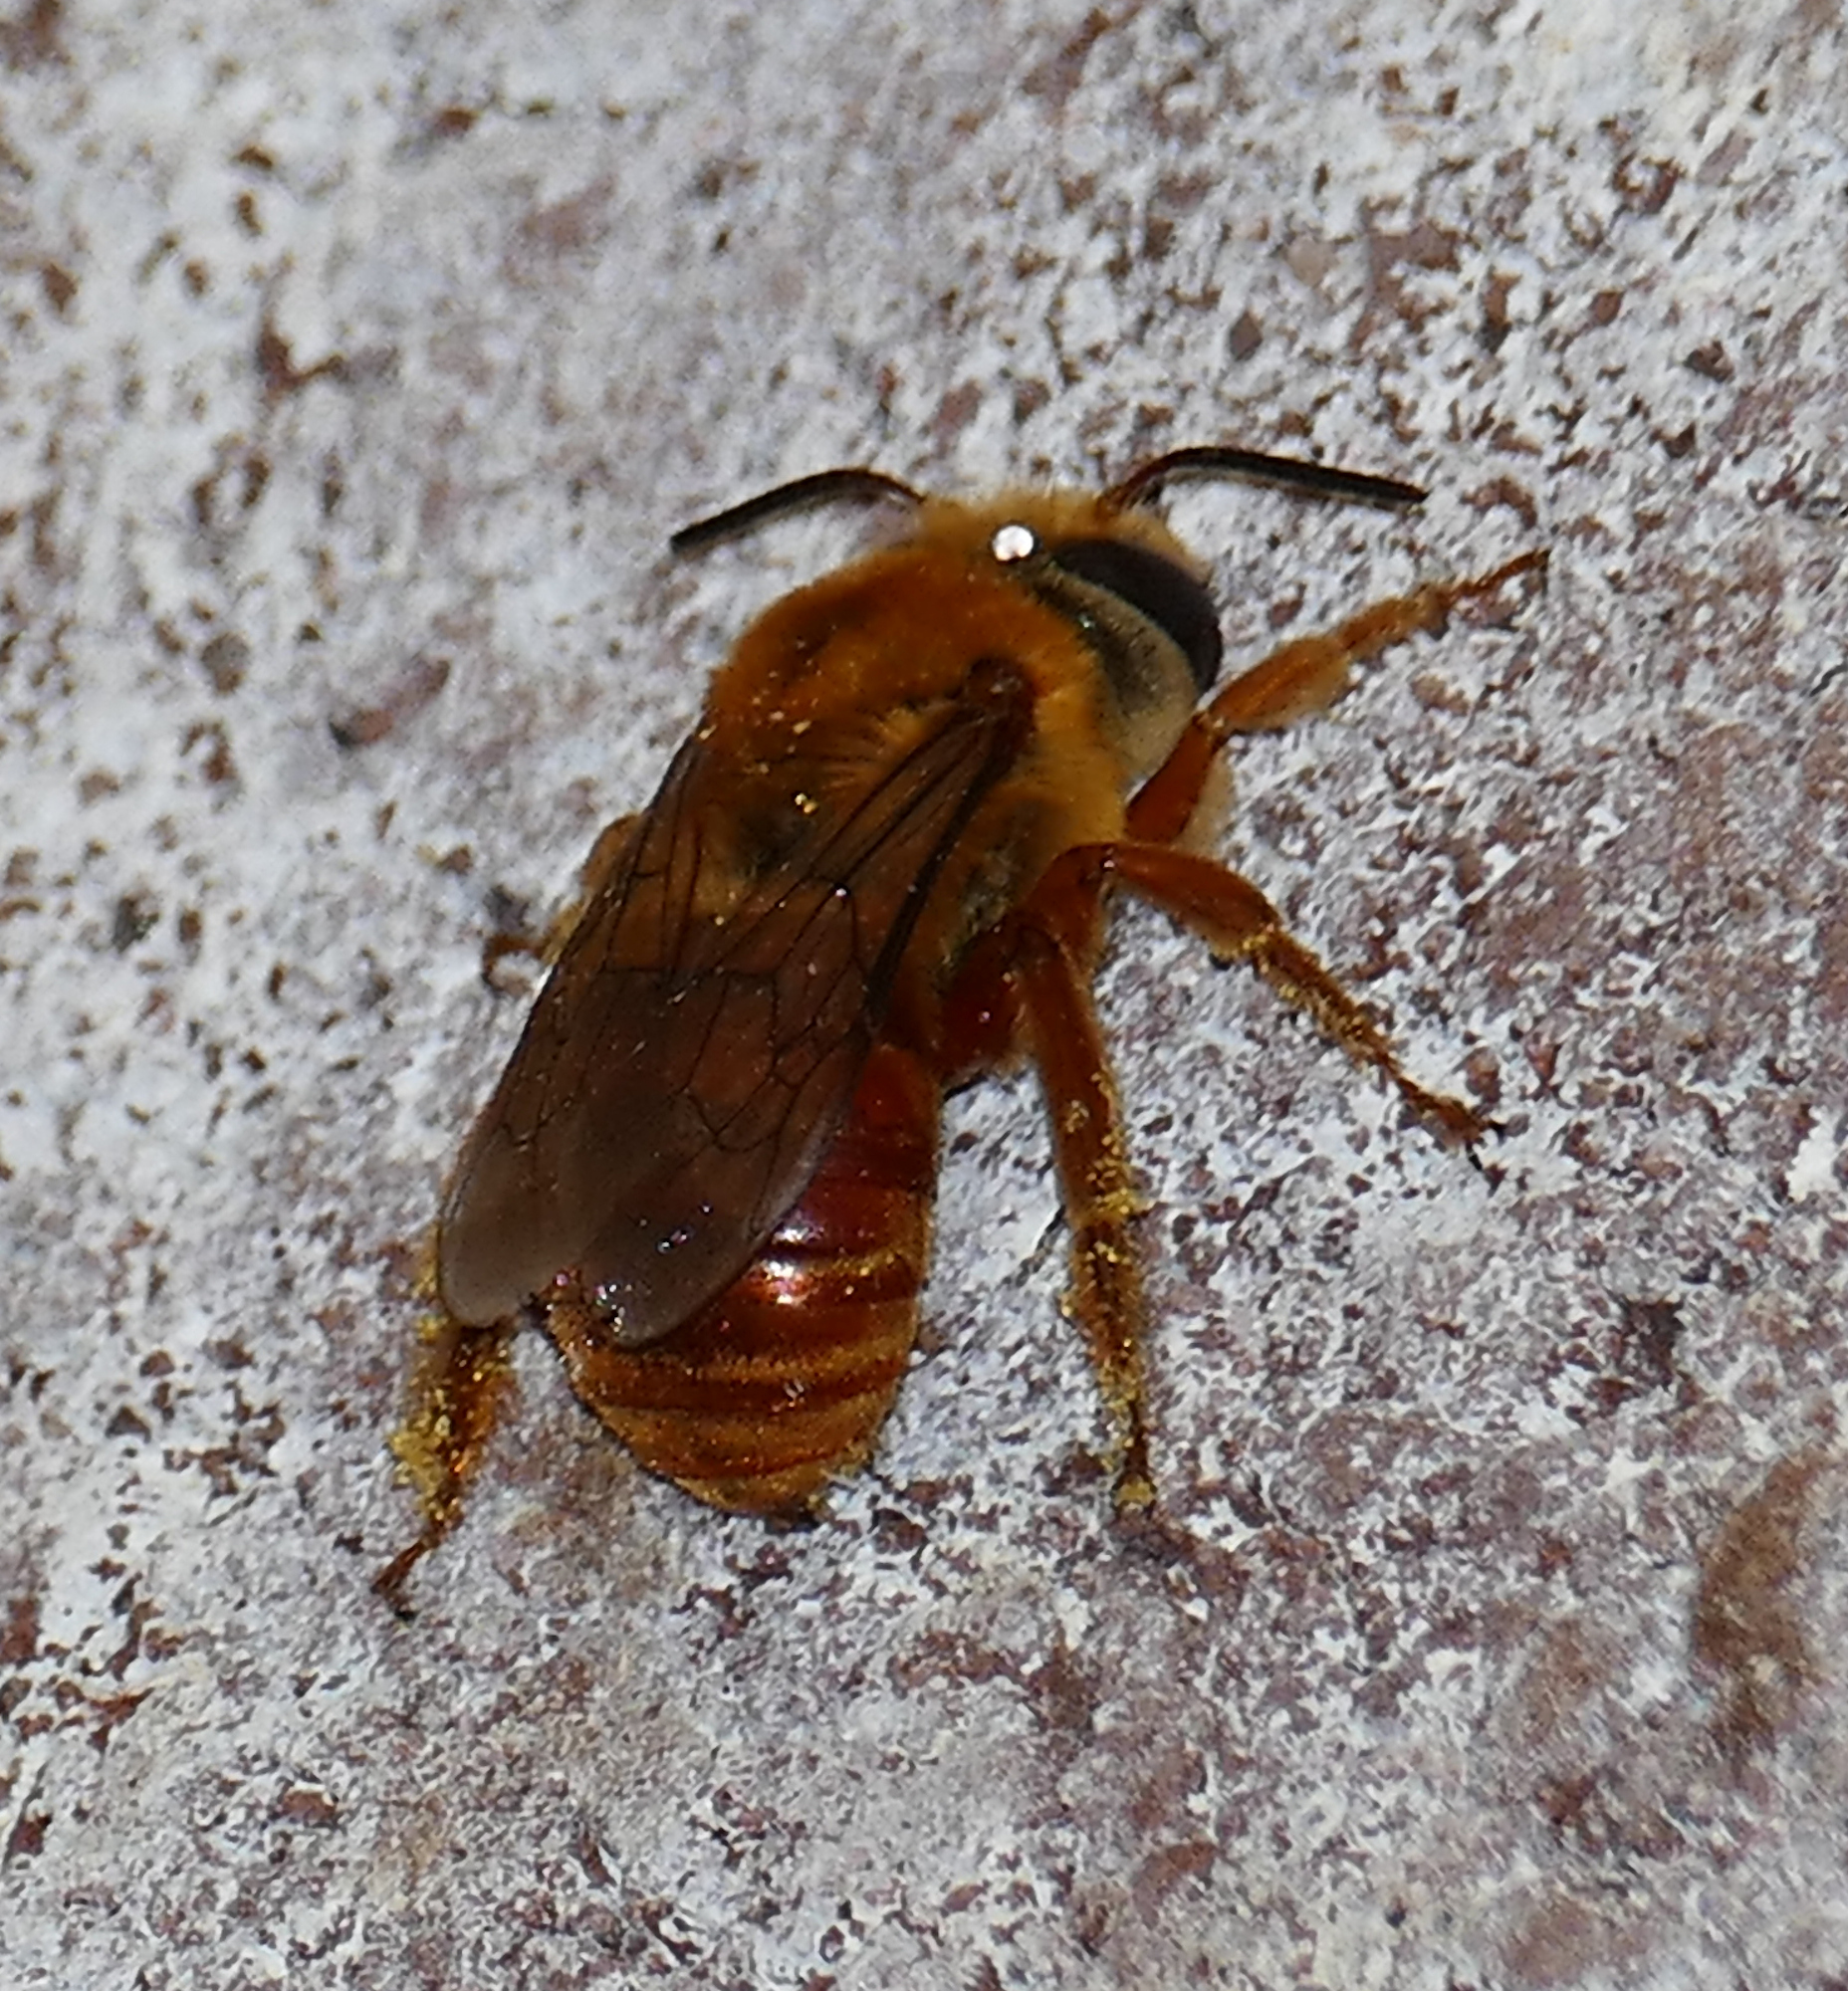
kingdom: Animalia
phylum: Arthropoda
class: Insecta
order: Hymenoptera
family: Apidae
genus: Xenoglossa
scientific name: Xenoglossa angustior
